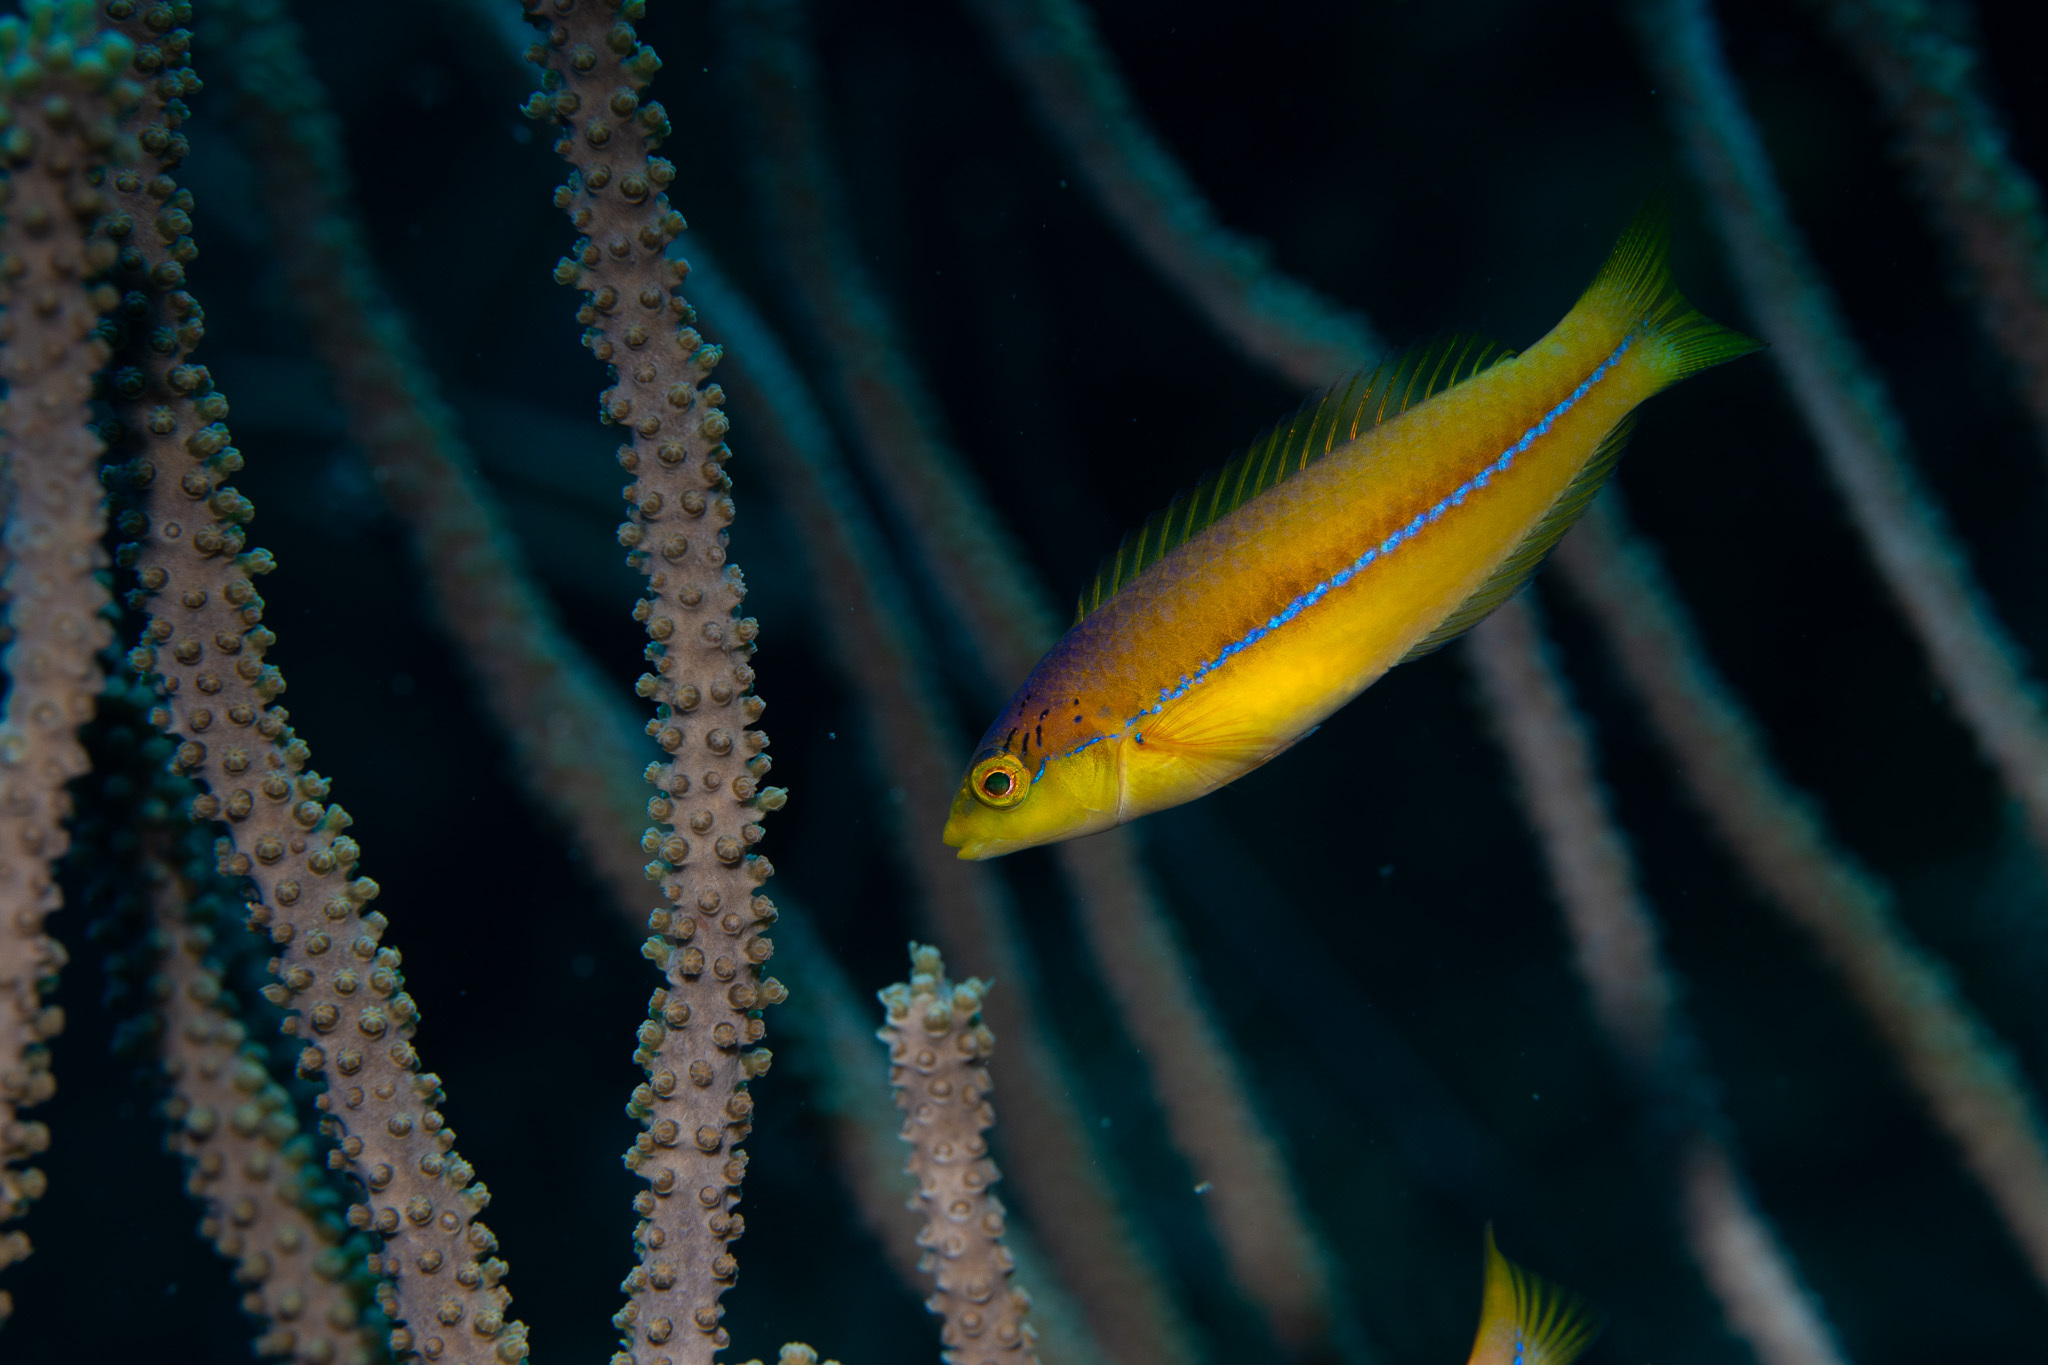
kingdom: Animalia
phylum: Chordata
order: Perciformes
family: Labridae
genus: Halichoeres
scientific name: Halichoeres garnoti
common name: Yellowhead wrasse
